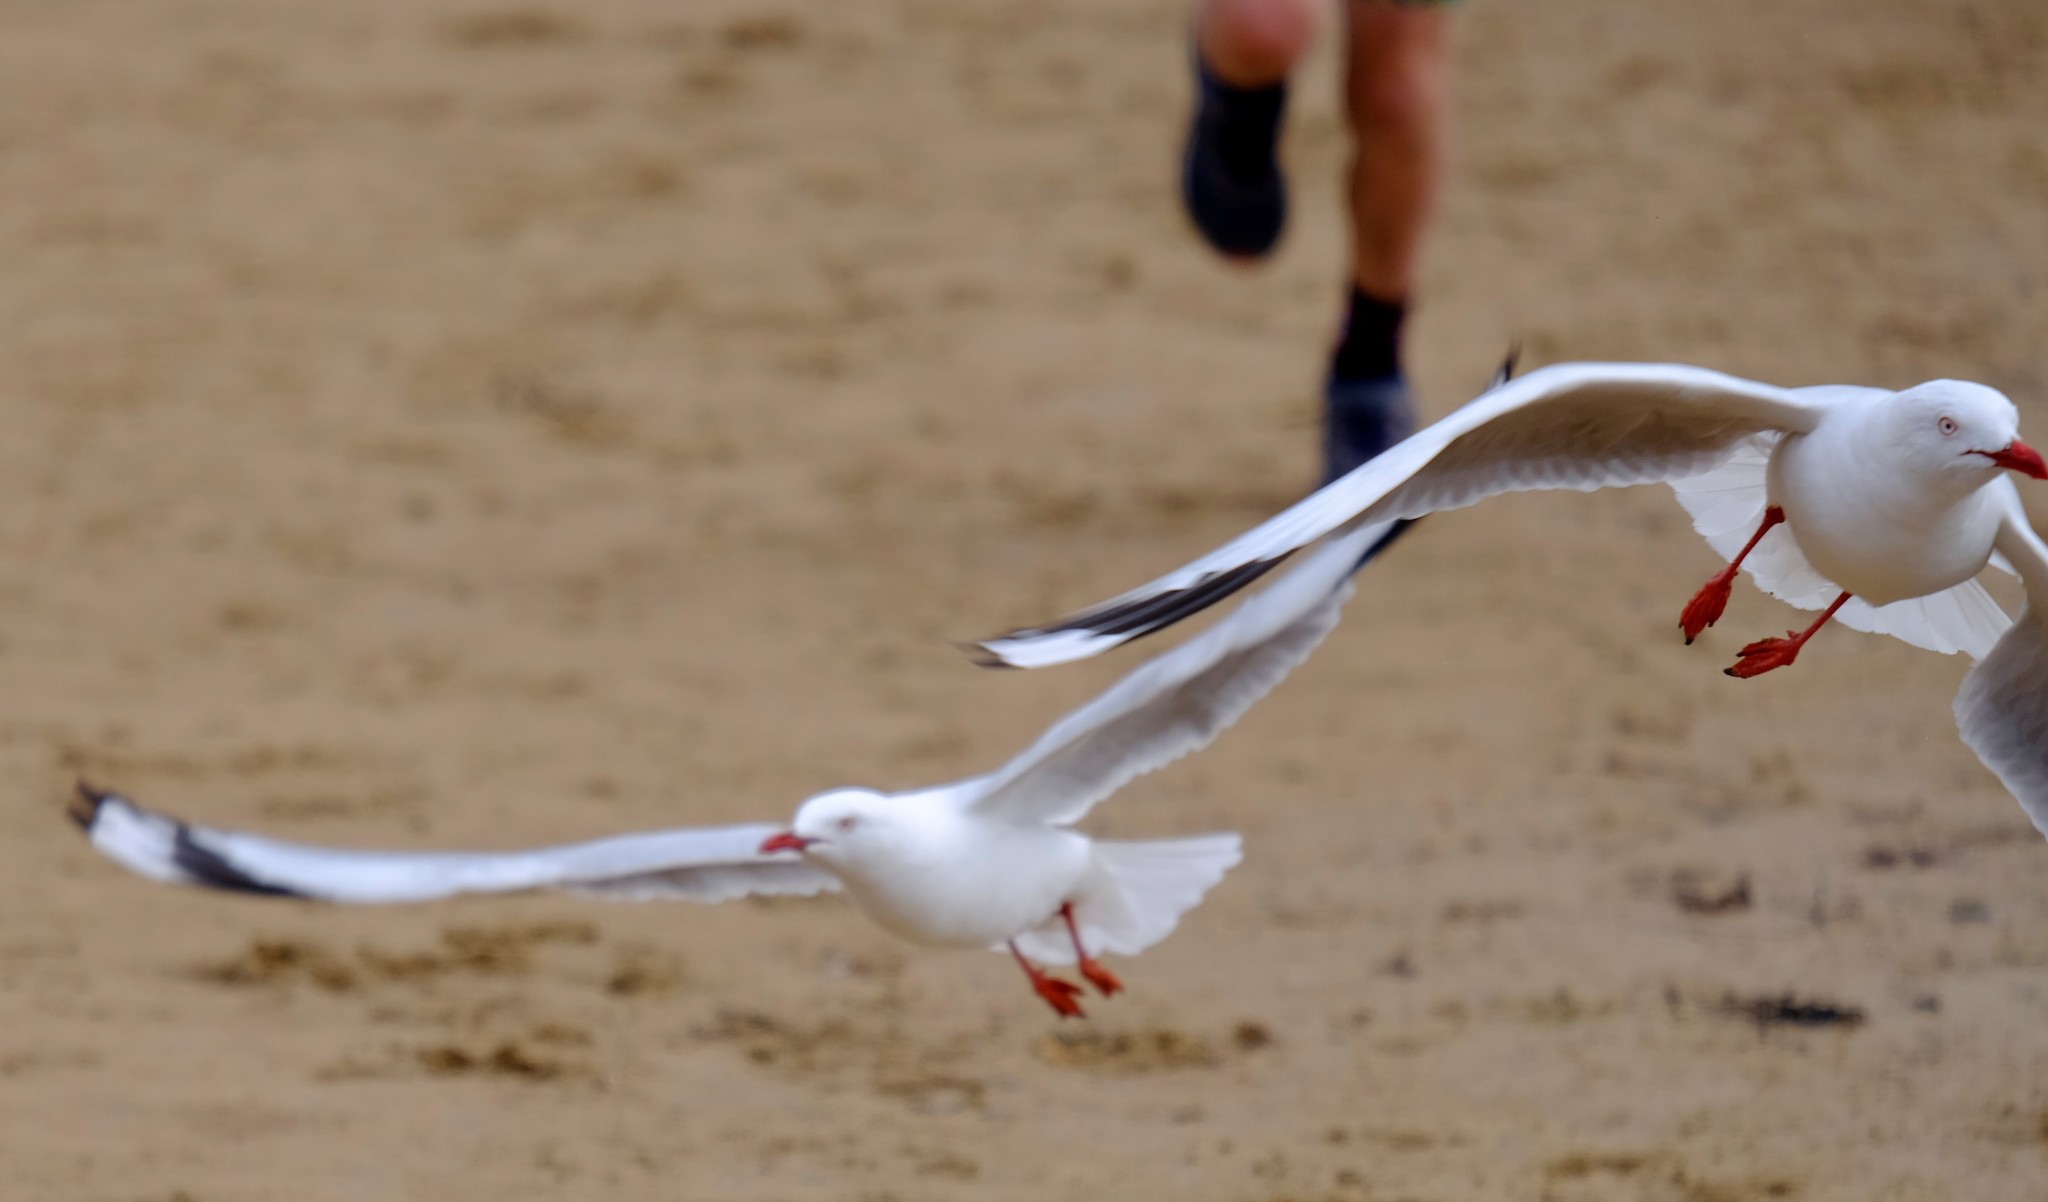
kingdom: Animalia
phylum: Chordata
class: Aves
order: Charadriiformes
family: Laridae
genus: Chroicocephalus
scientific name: Chroicocephalus novaehollandiae
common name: Silver gull
